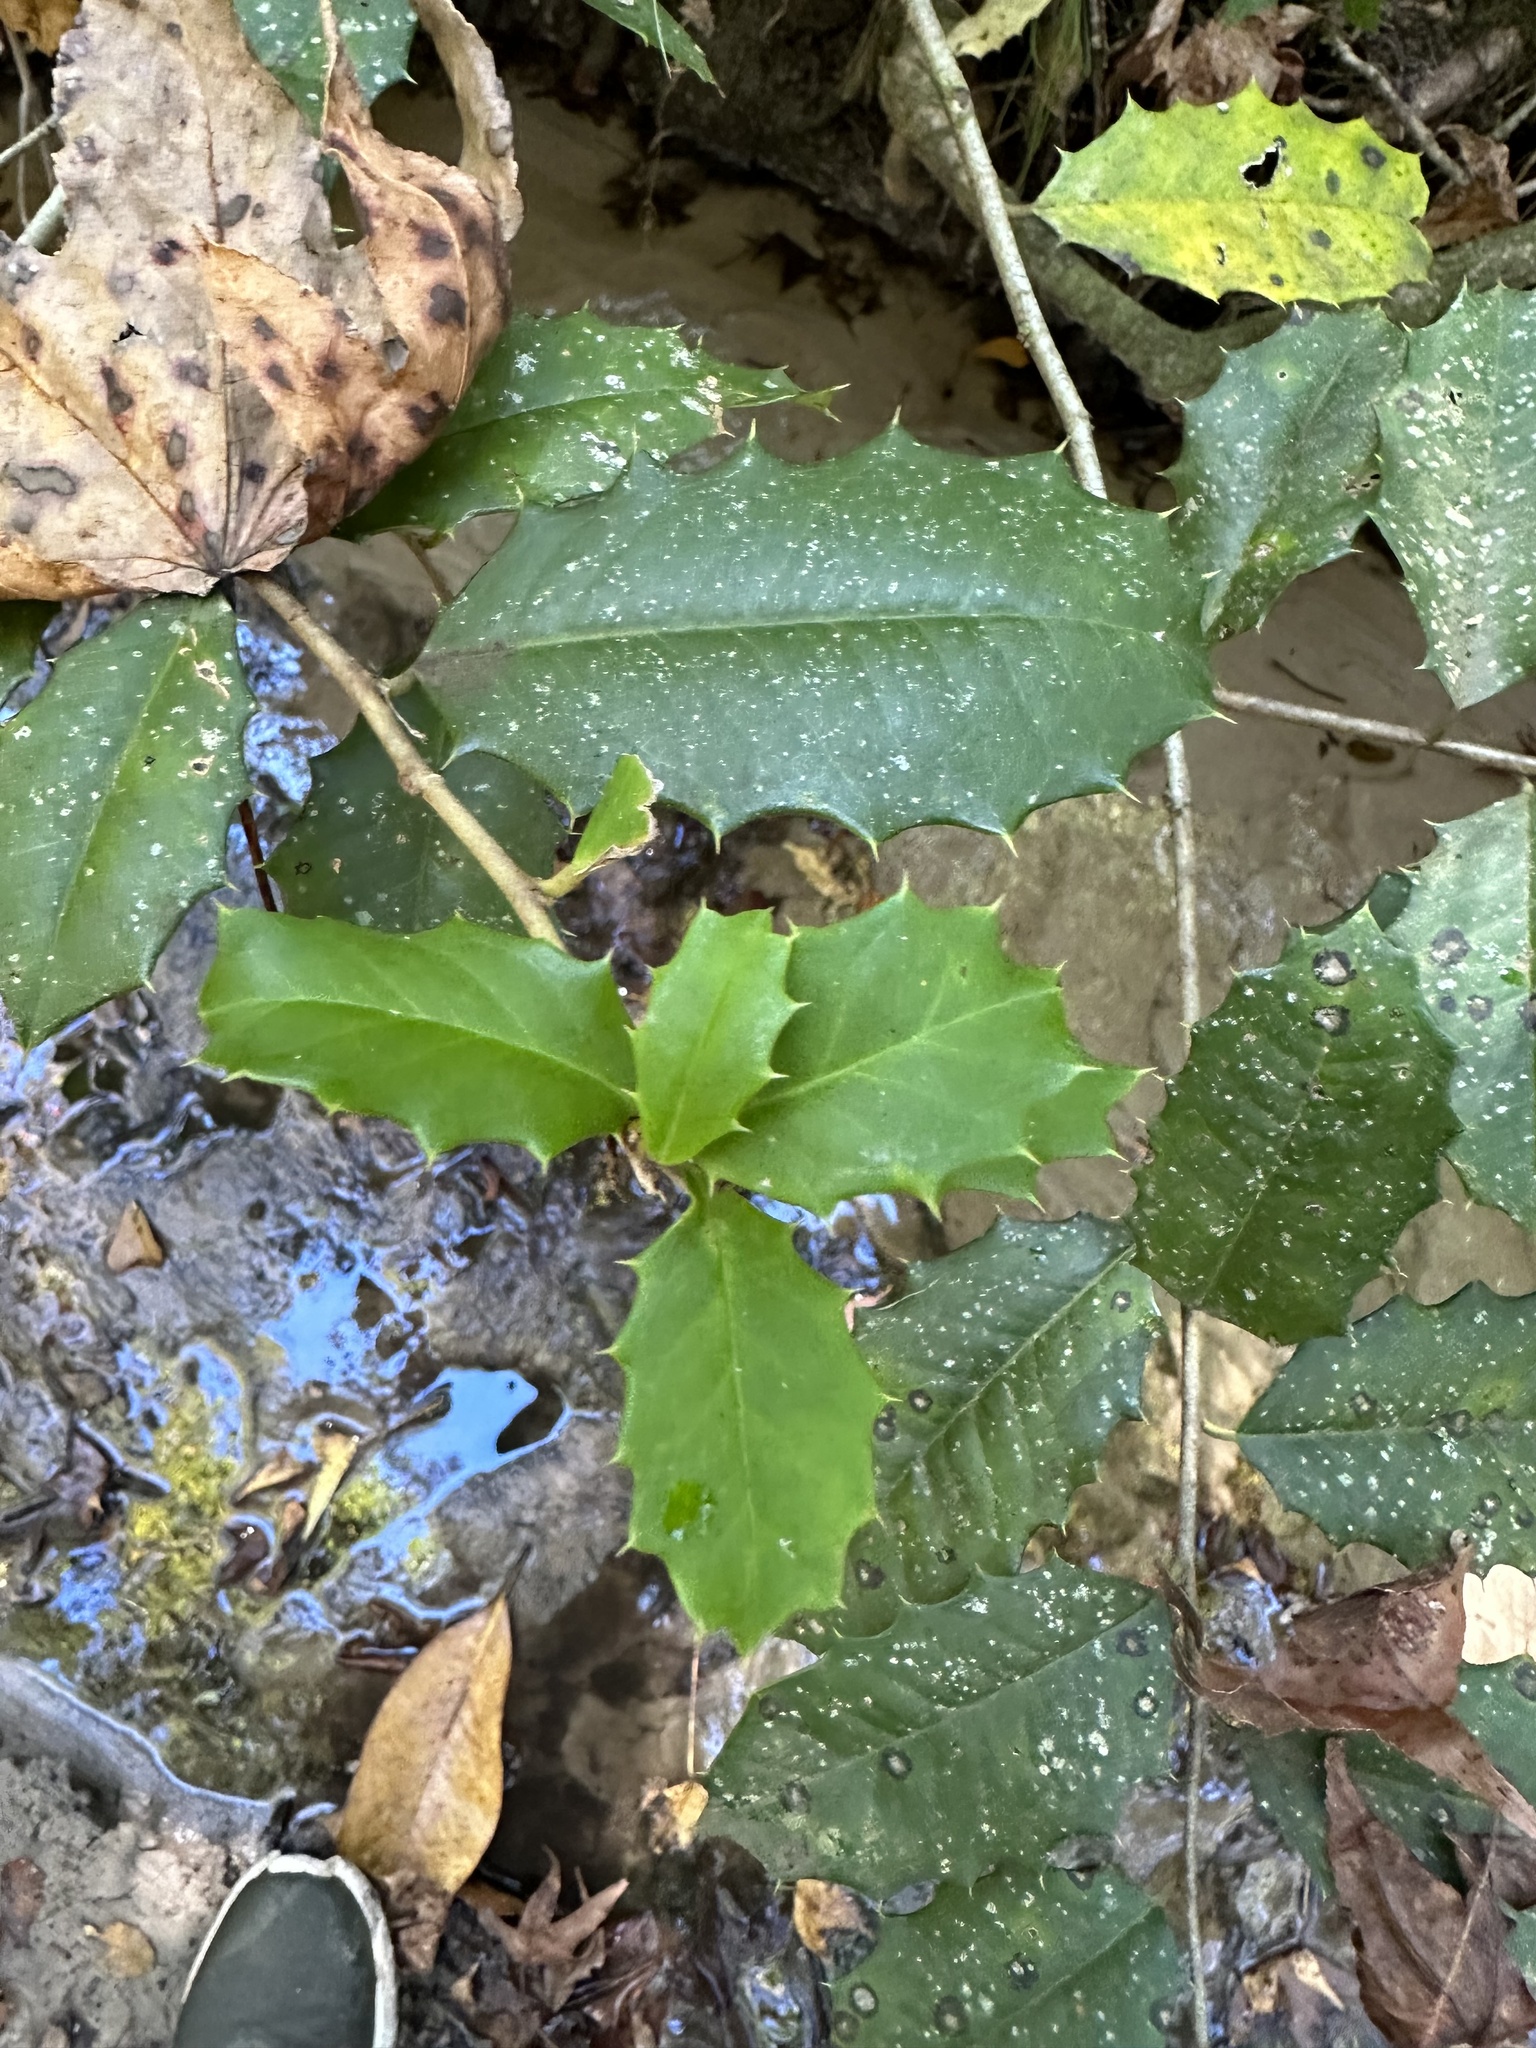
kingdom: Plantae
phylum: Tracheophyta
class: Magnoliopsida
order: Aquifoliales
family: Aquifoliaceae
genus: Ilex
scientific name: Ilex opaca
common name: American holly
